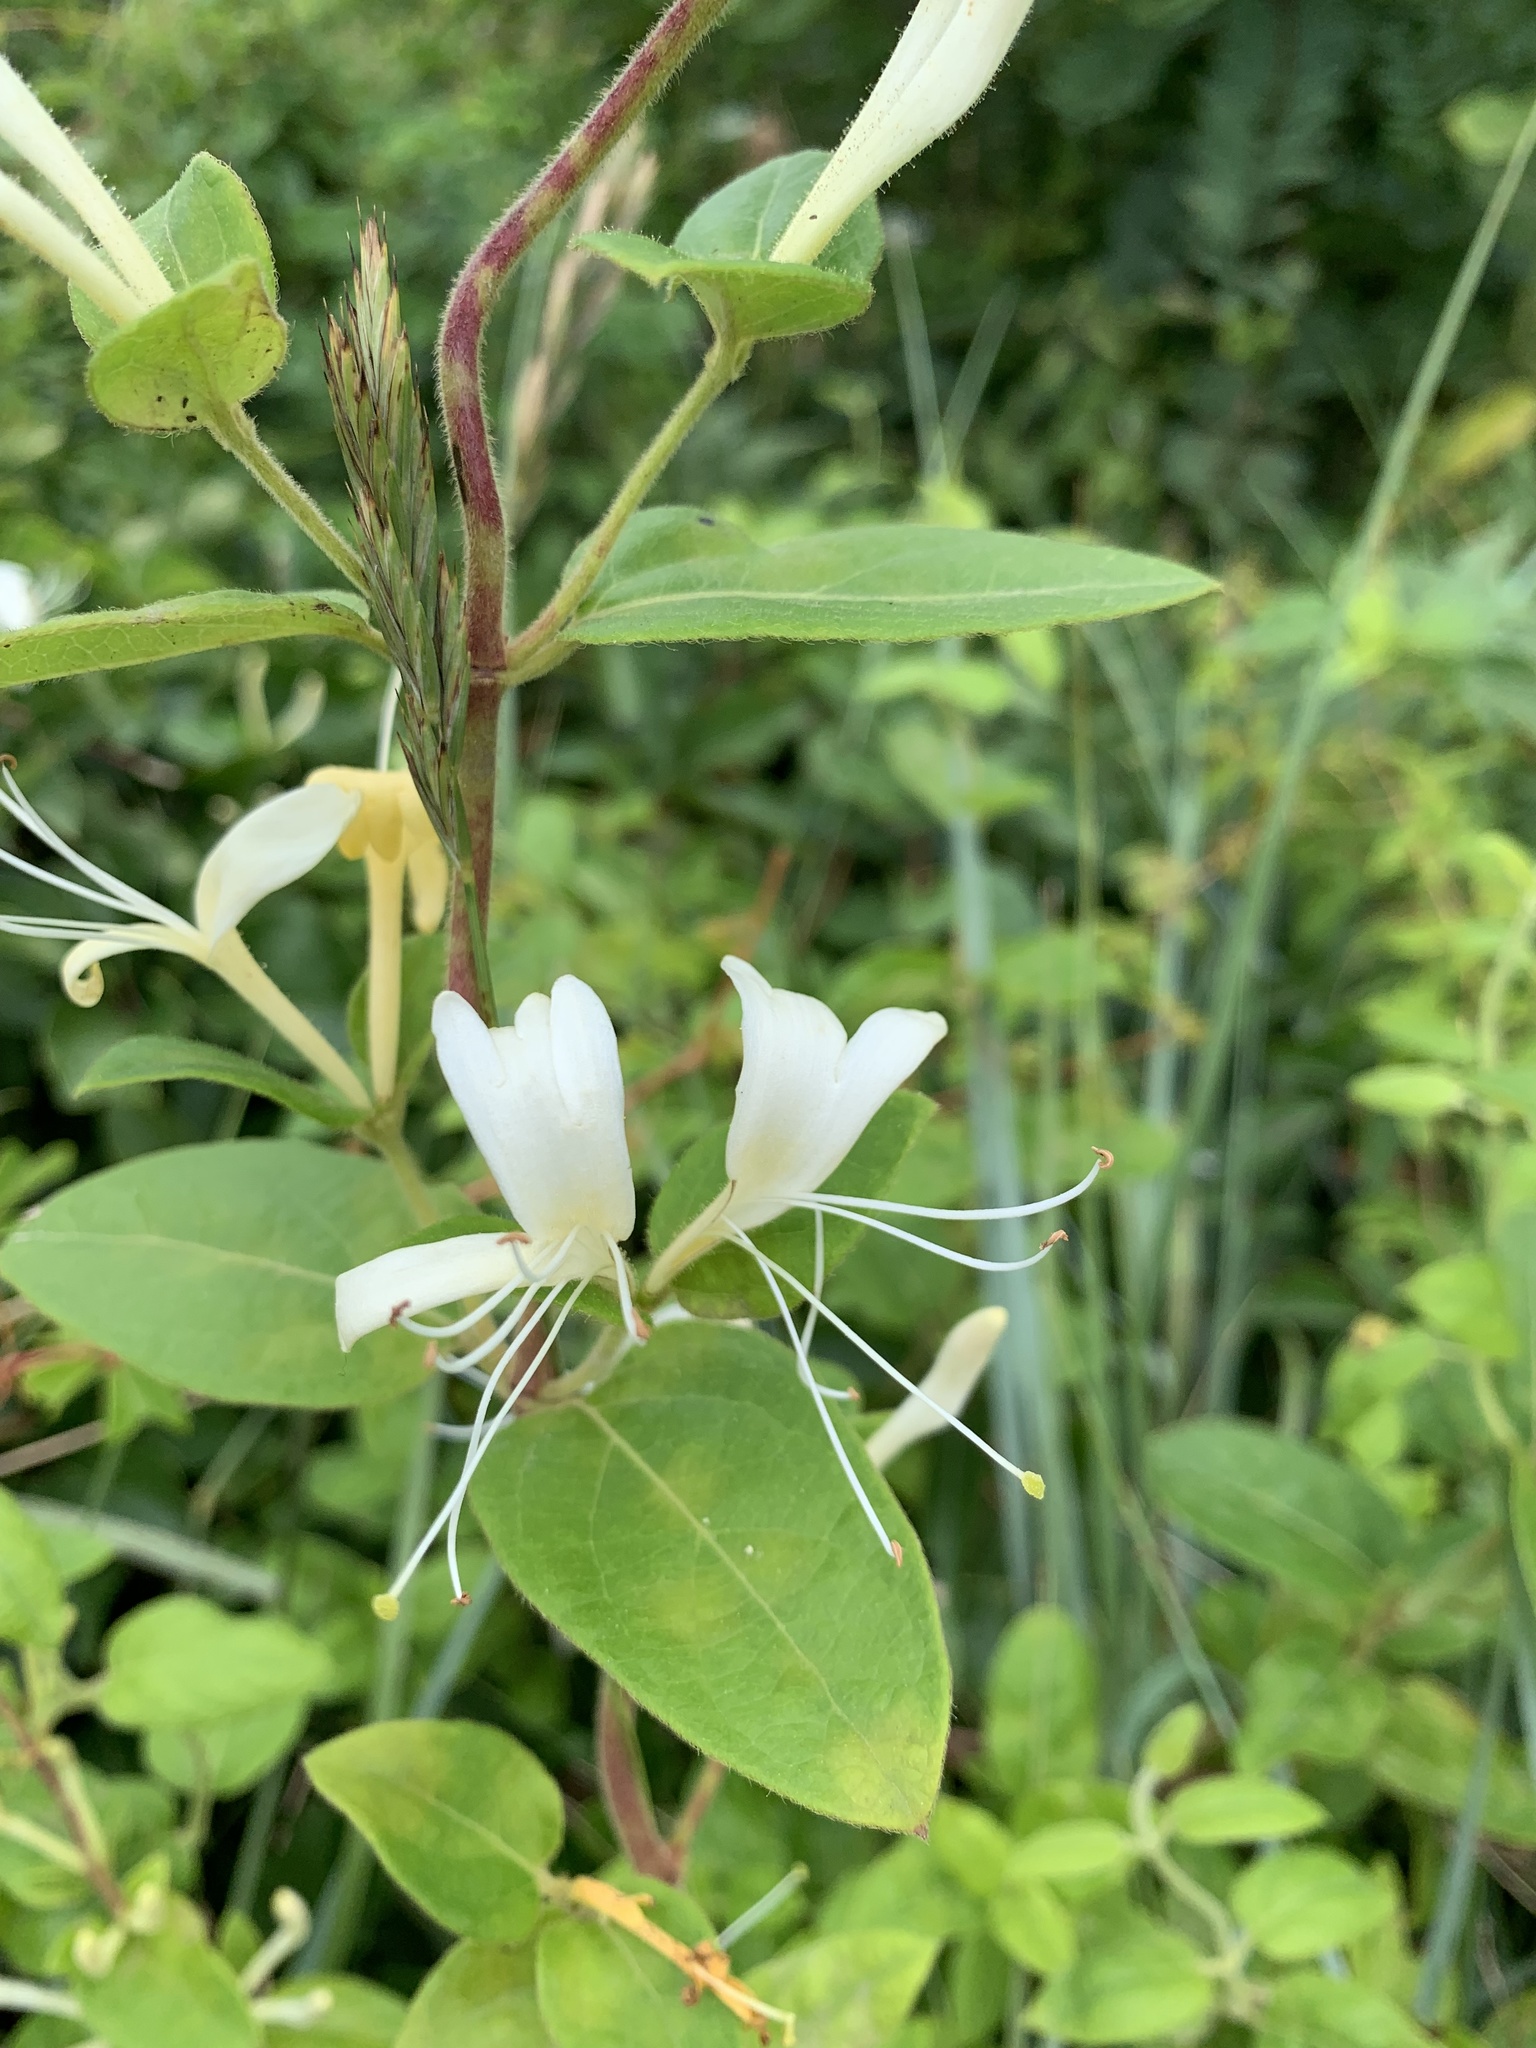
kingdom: Plantae
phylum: Tracheophyta
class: Magnoliopsida
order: Dipsacales
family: Caprifoliaceae
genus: Lonicera
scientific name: Lonicera japonica
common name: Japanese honeysuckle
